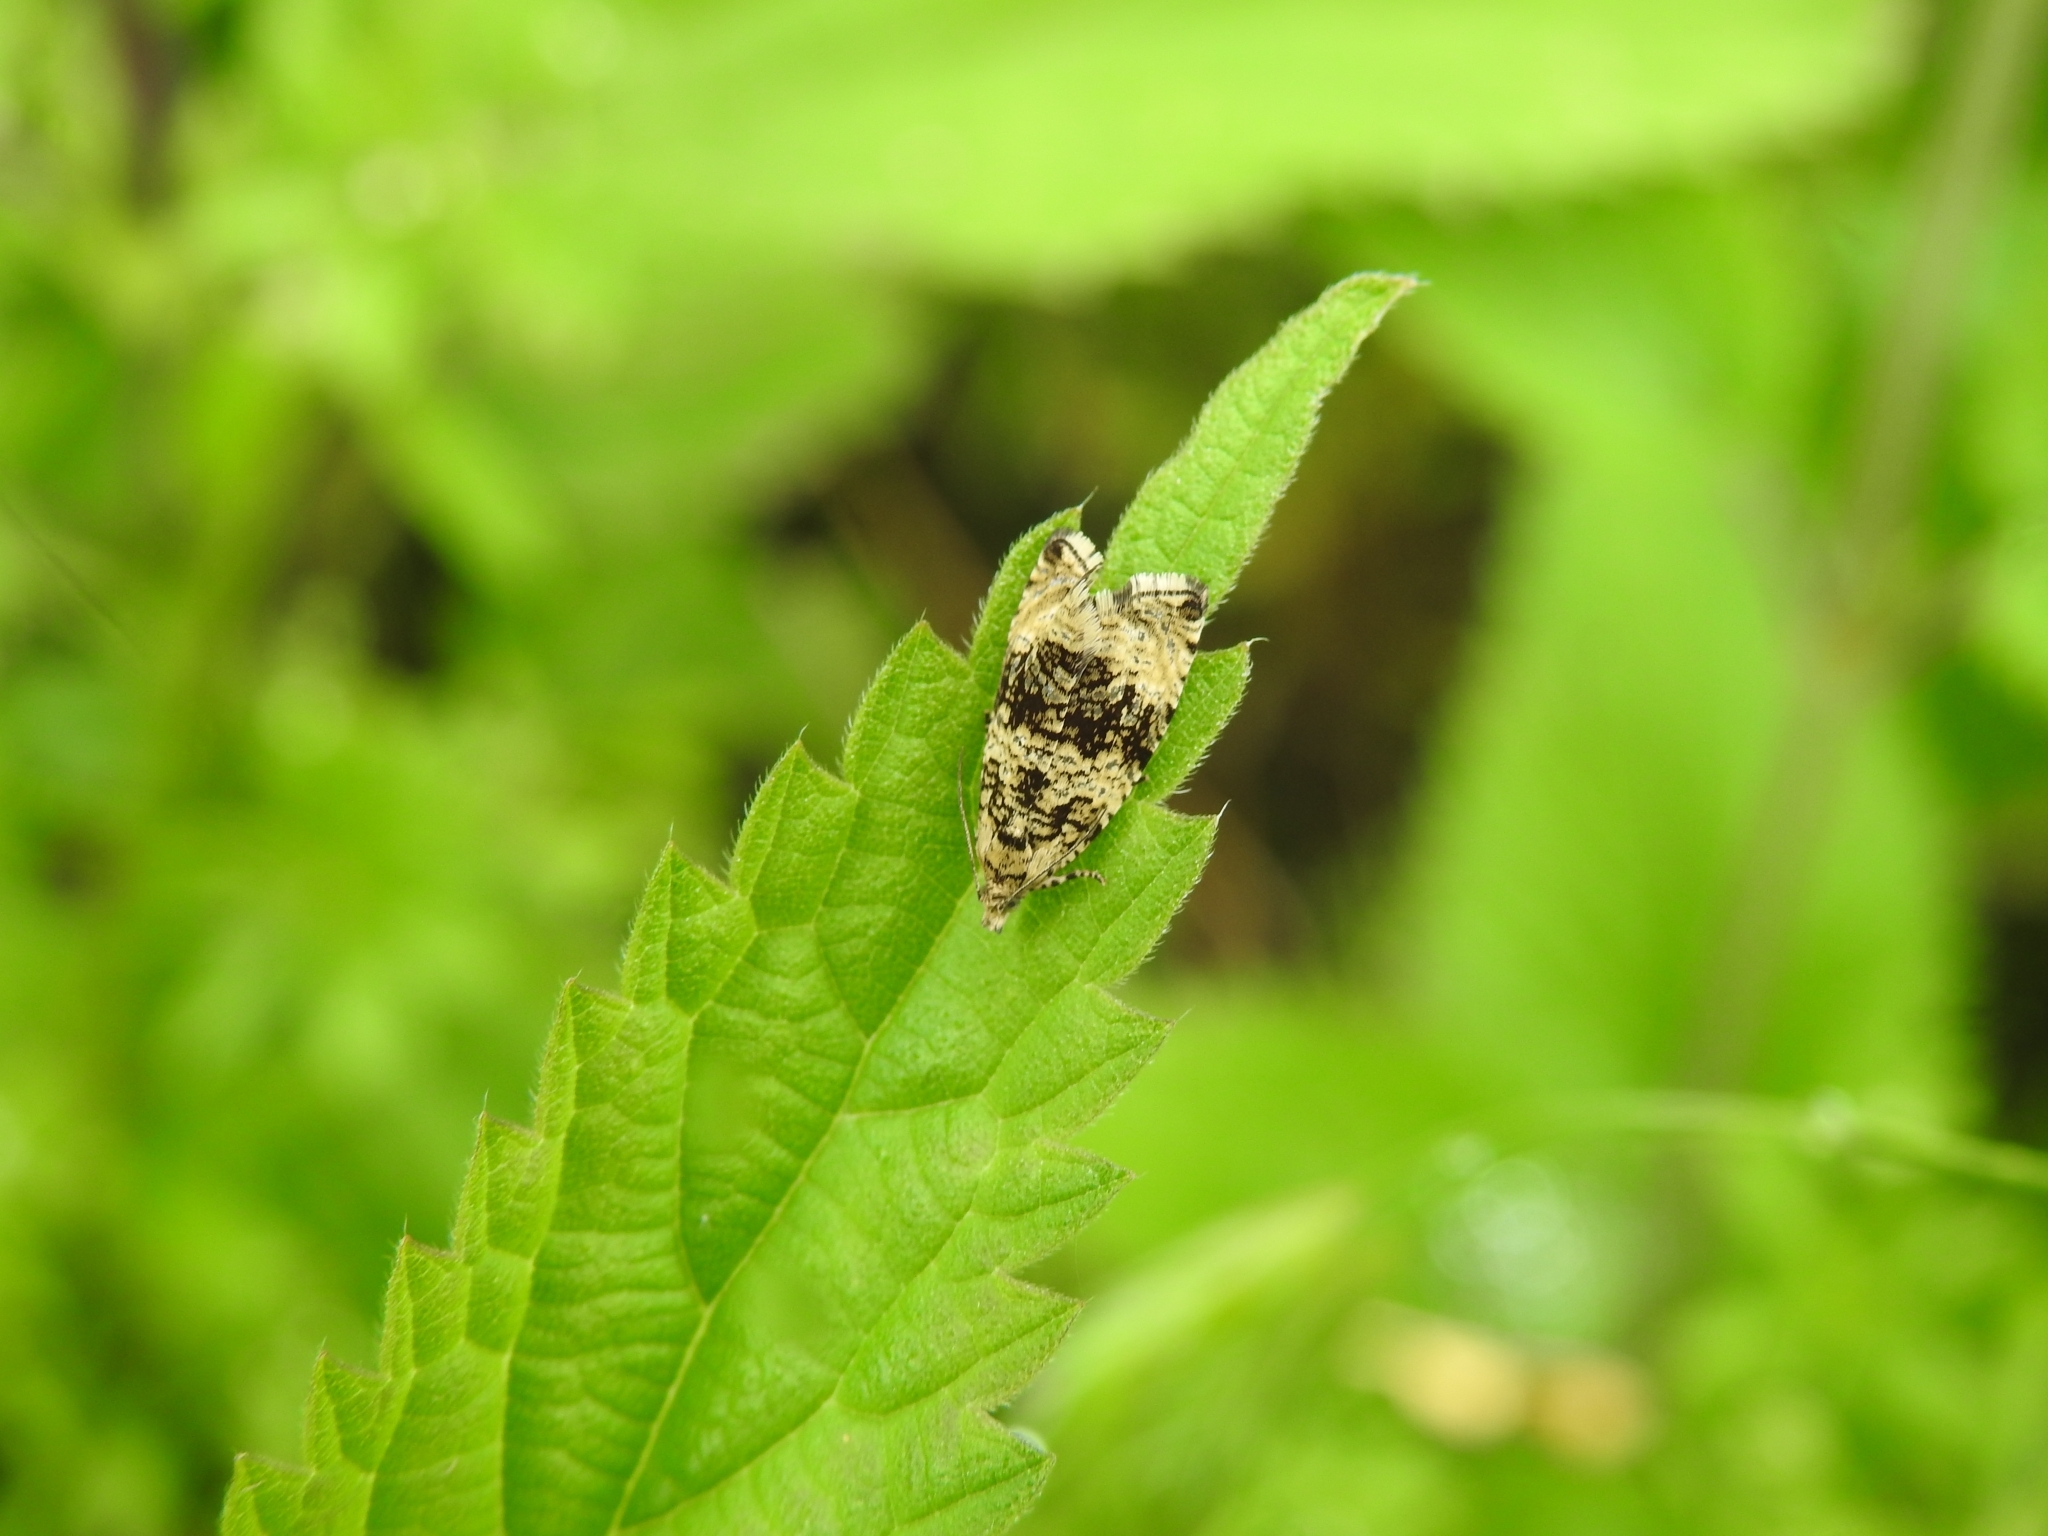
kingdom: Animalia
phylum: Arthropoda
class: Insecta
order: Lepidoptera
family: Tortricidae
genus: Syricoris
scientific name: Syricoris lacunana
